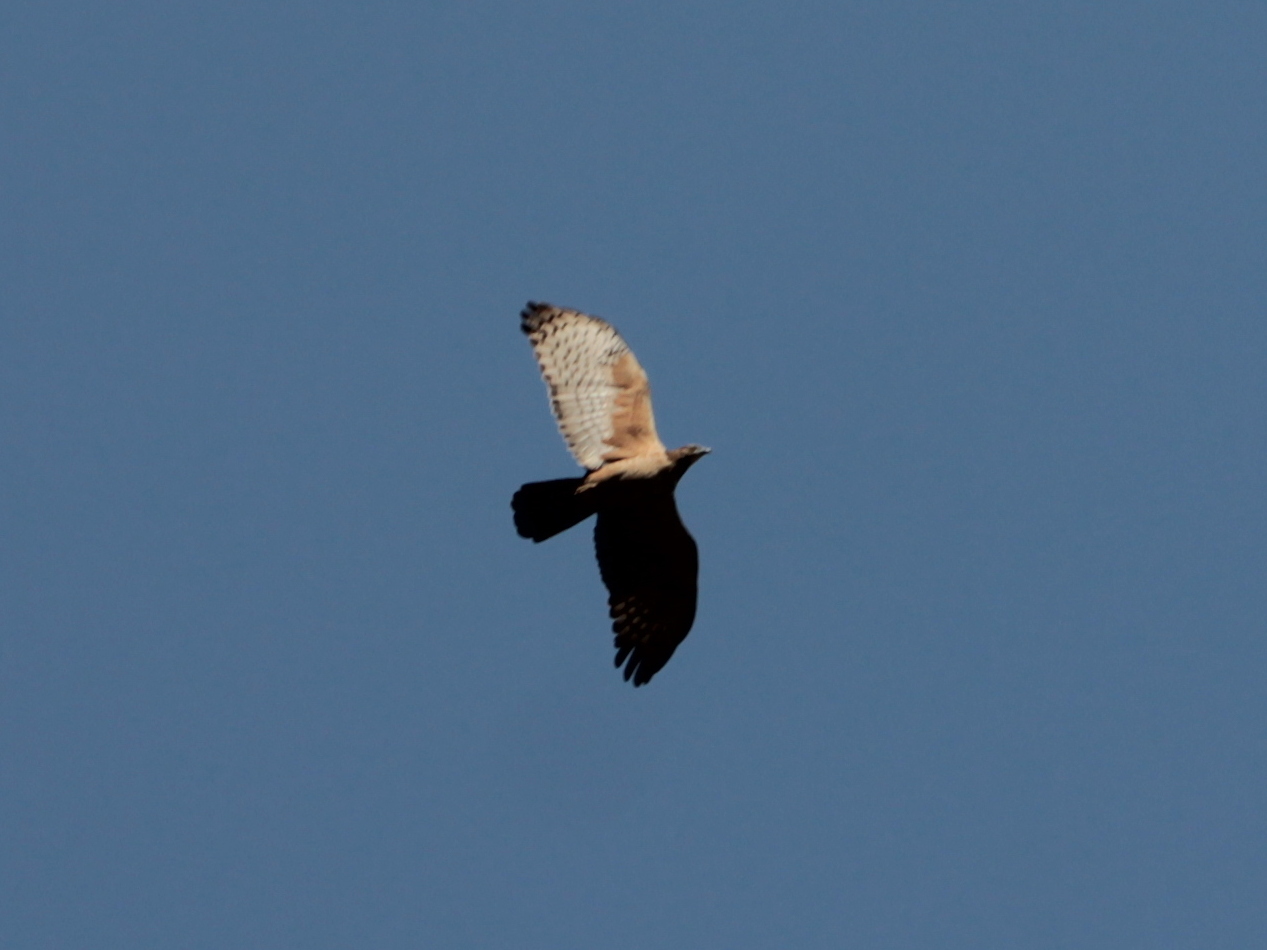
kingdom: Animalia
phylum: Chordata
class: Aves
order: Accipitriformes
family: Accipitridae
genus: Pernis
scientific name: Pernis ptilorhynchus
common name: Crested honey buzzard
